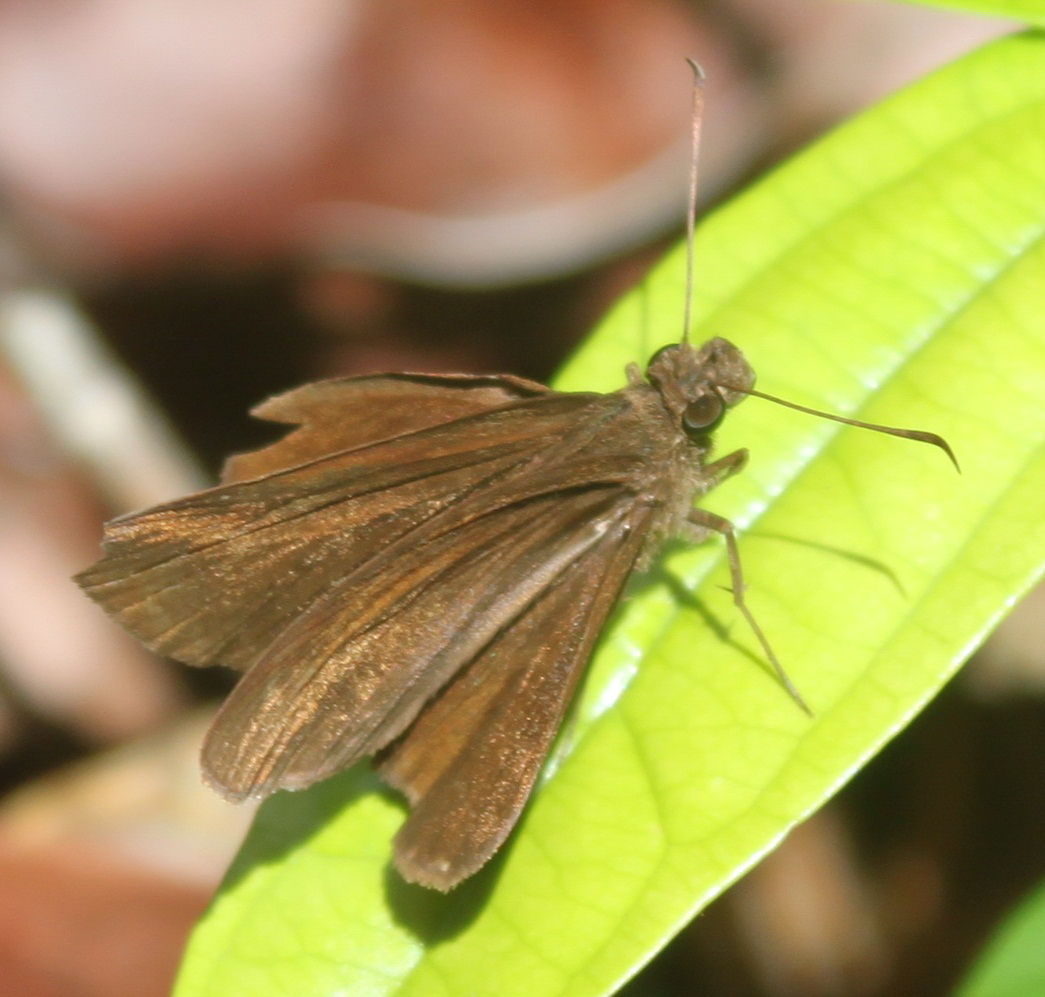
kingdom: Animalia
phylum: Arthropoda
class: Insecta
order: Lepidoptera
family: Hesperiidae
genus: Ancistroides
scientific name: Ancistroides nigrita
